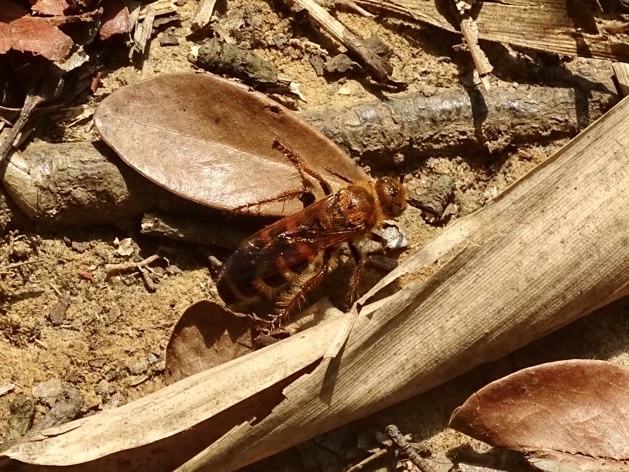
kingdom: Animalia
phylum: Arthropoda
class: Insecta
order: Hymenoptera
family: Scoliidae
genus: Campsomeris
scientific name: Campsomeris phalerata
